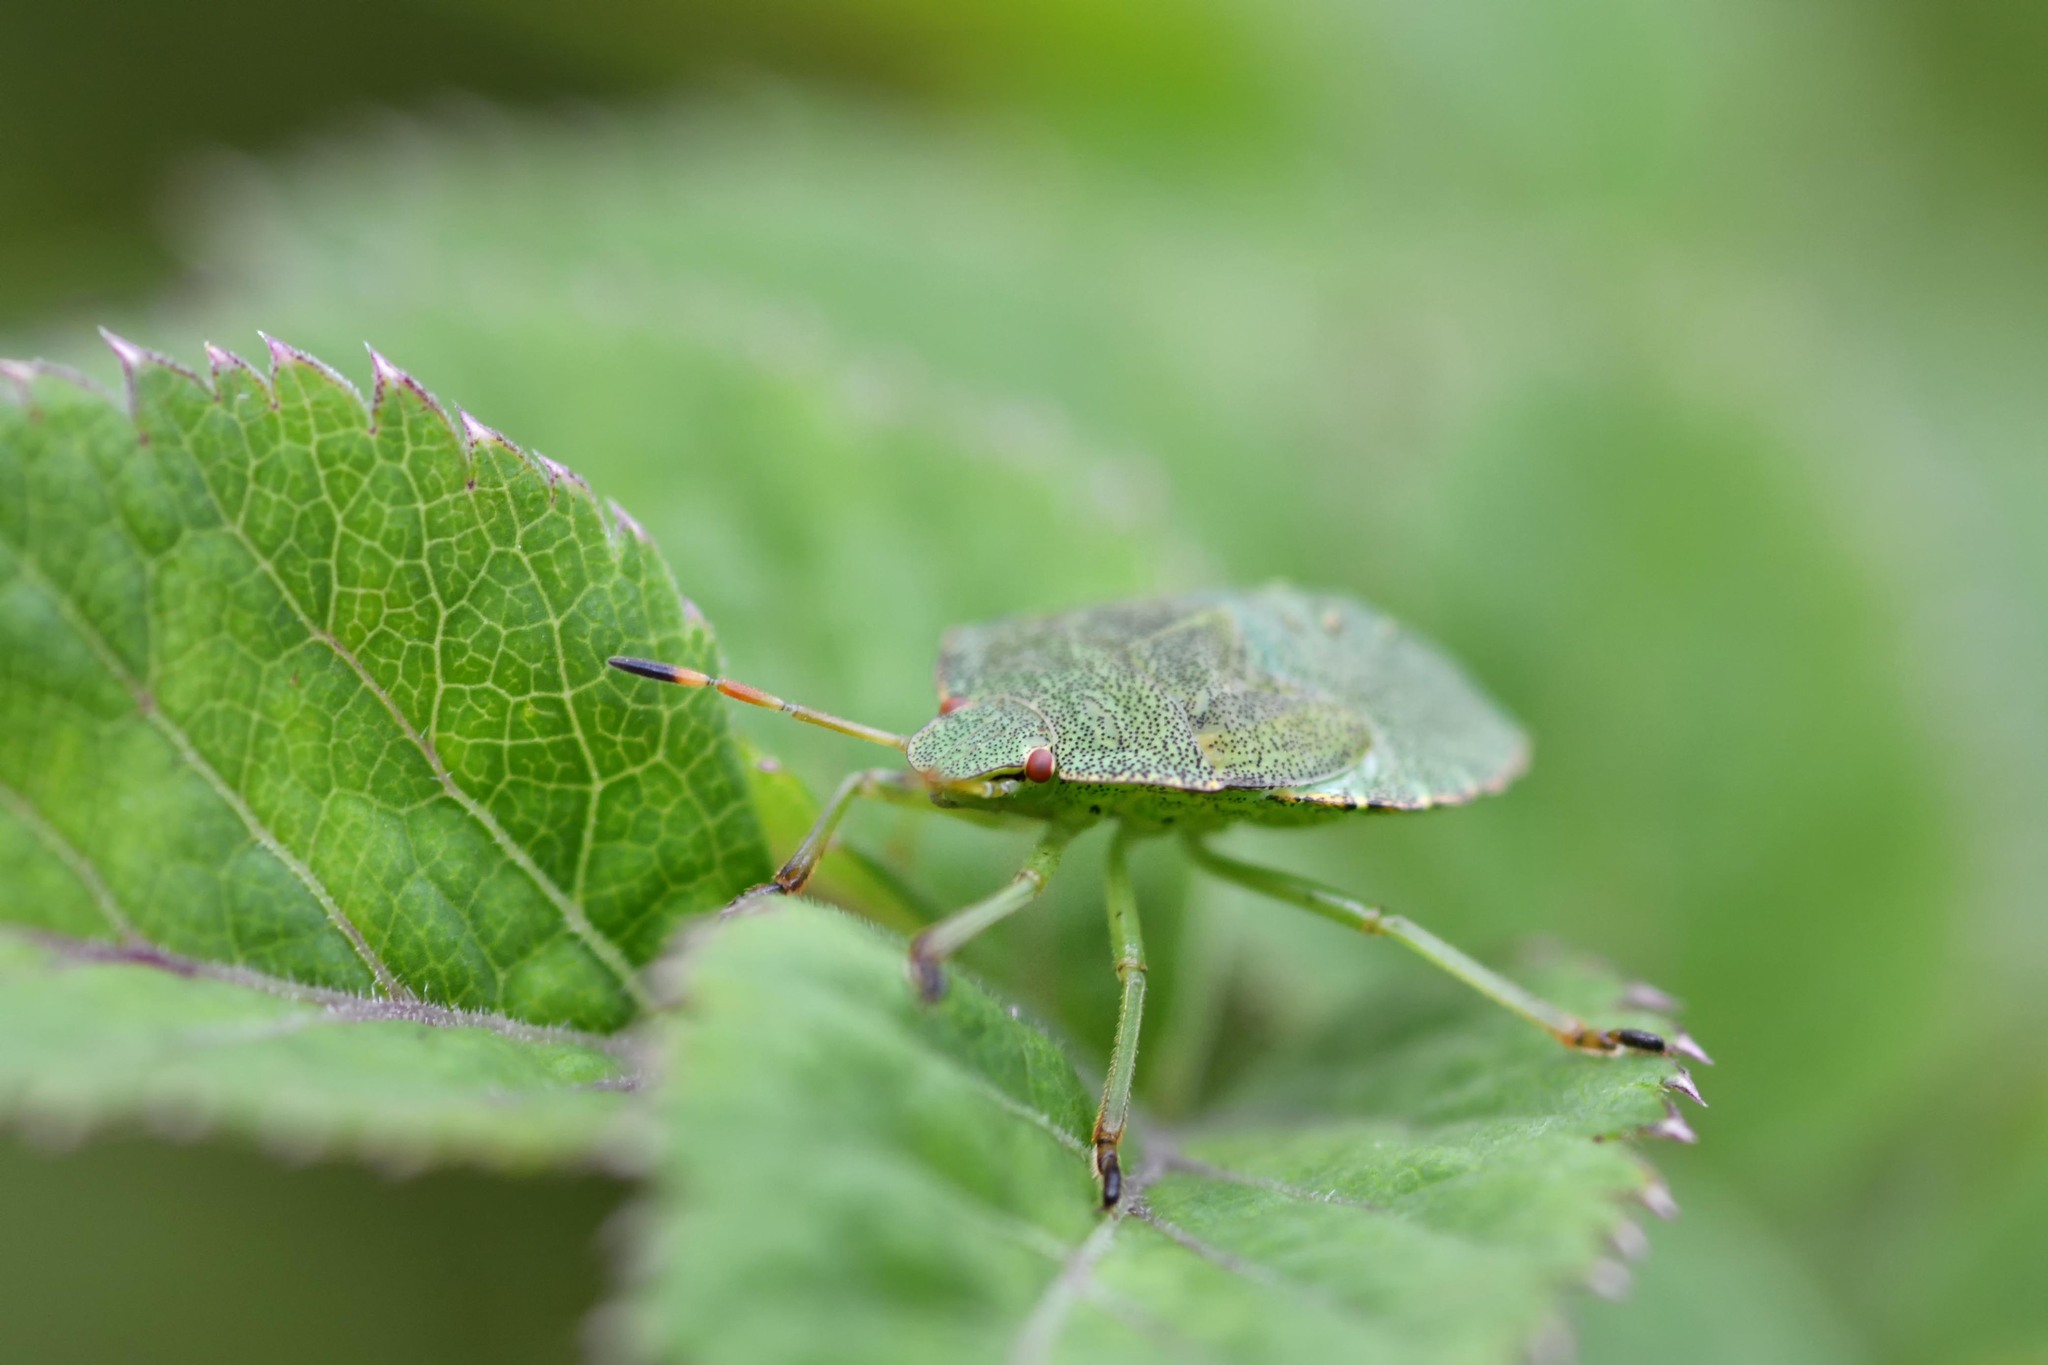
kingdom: Animalia
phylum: Arthropoda
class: Insecta
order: Hemiptera
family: Pentatomidae
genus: Palomena
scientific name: Palomena prasina
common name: Green shieldbug
